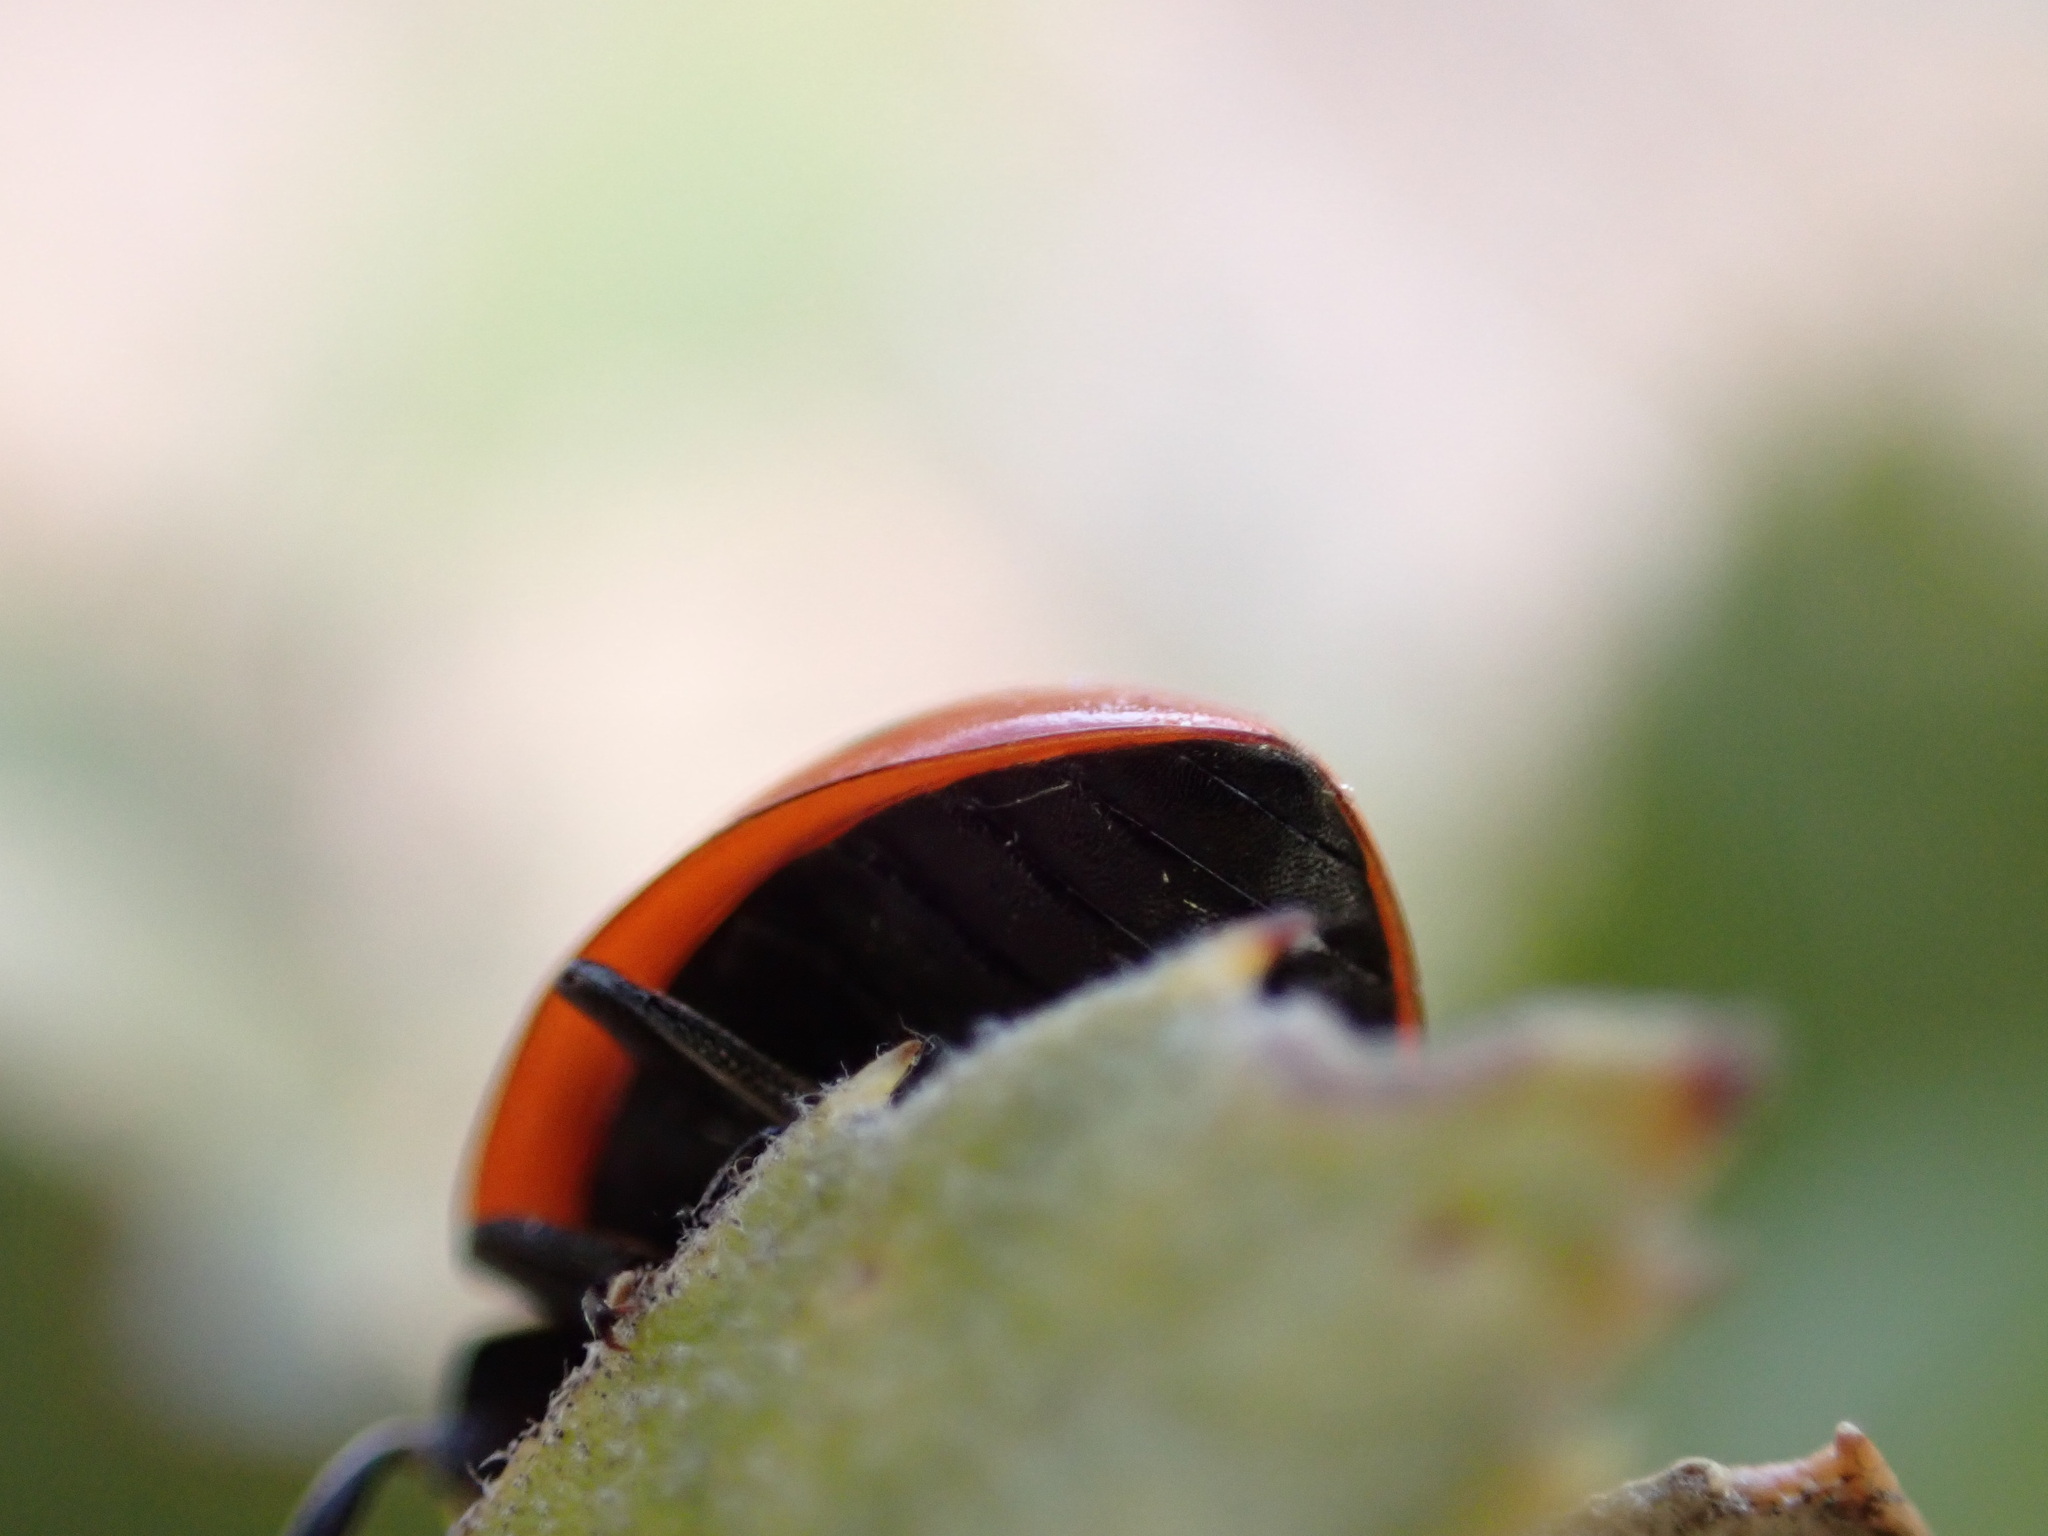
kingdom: Animalia
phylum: Arthropoda
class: Insecta
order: Coleoptera
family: Coccinellidae
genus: Coccinella
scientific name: Coccinella septempunctata
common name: Sevenspotted lady beetle
